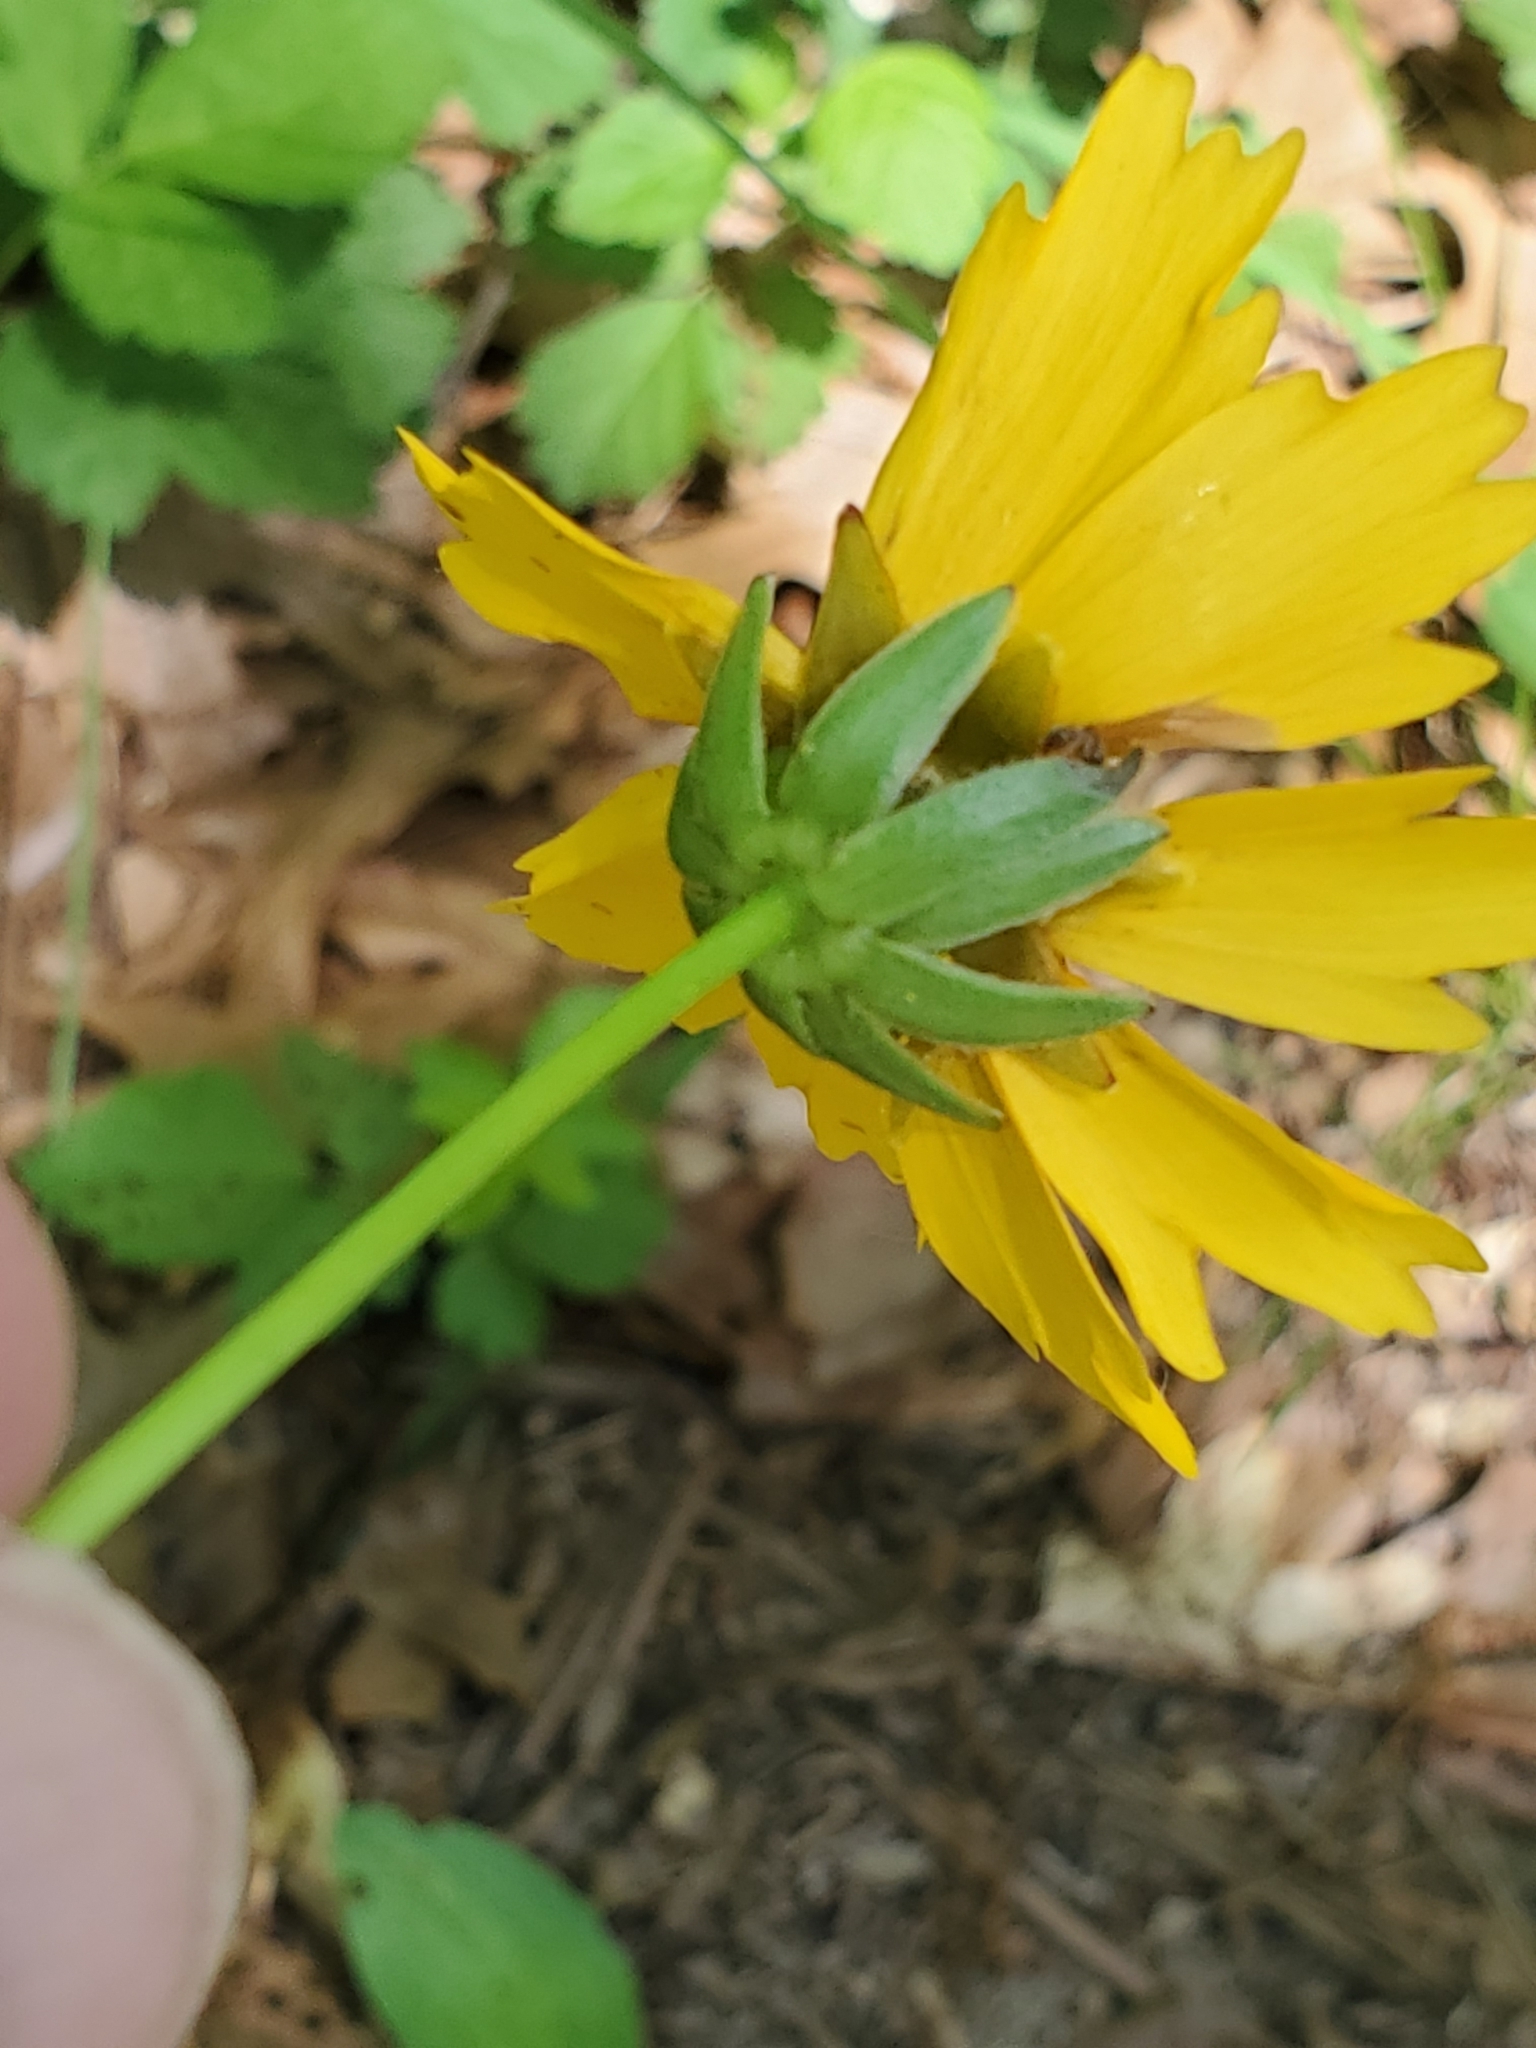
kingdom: Plantae
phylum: Tracheophyta
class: Magnoliopsida
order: Asterales
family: Asteraceae
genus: Coreopsis
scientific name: Coreopsis lanceolata
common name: Garden coreopsis
